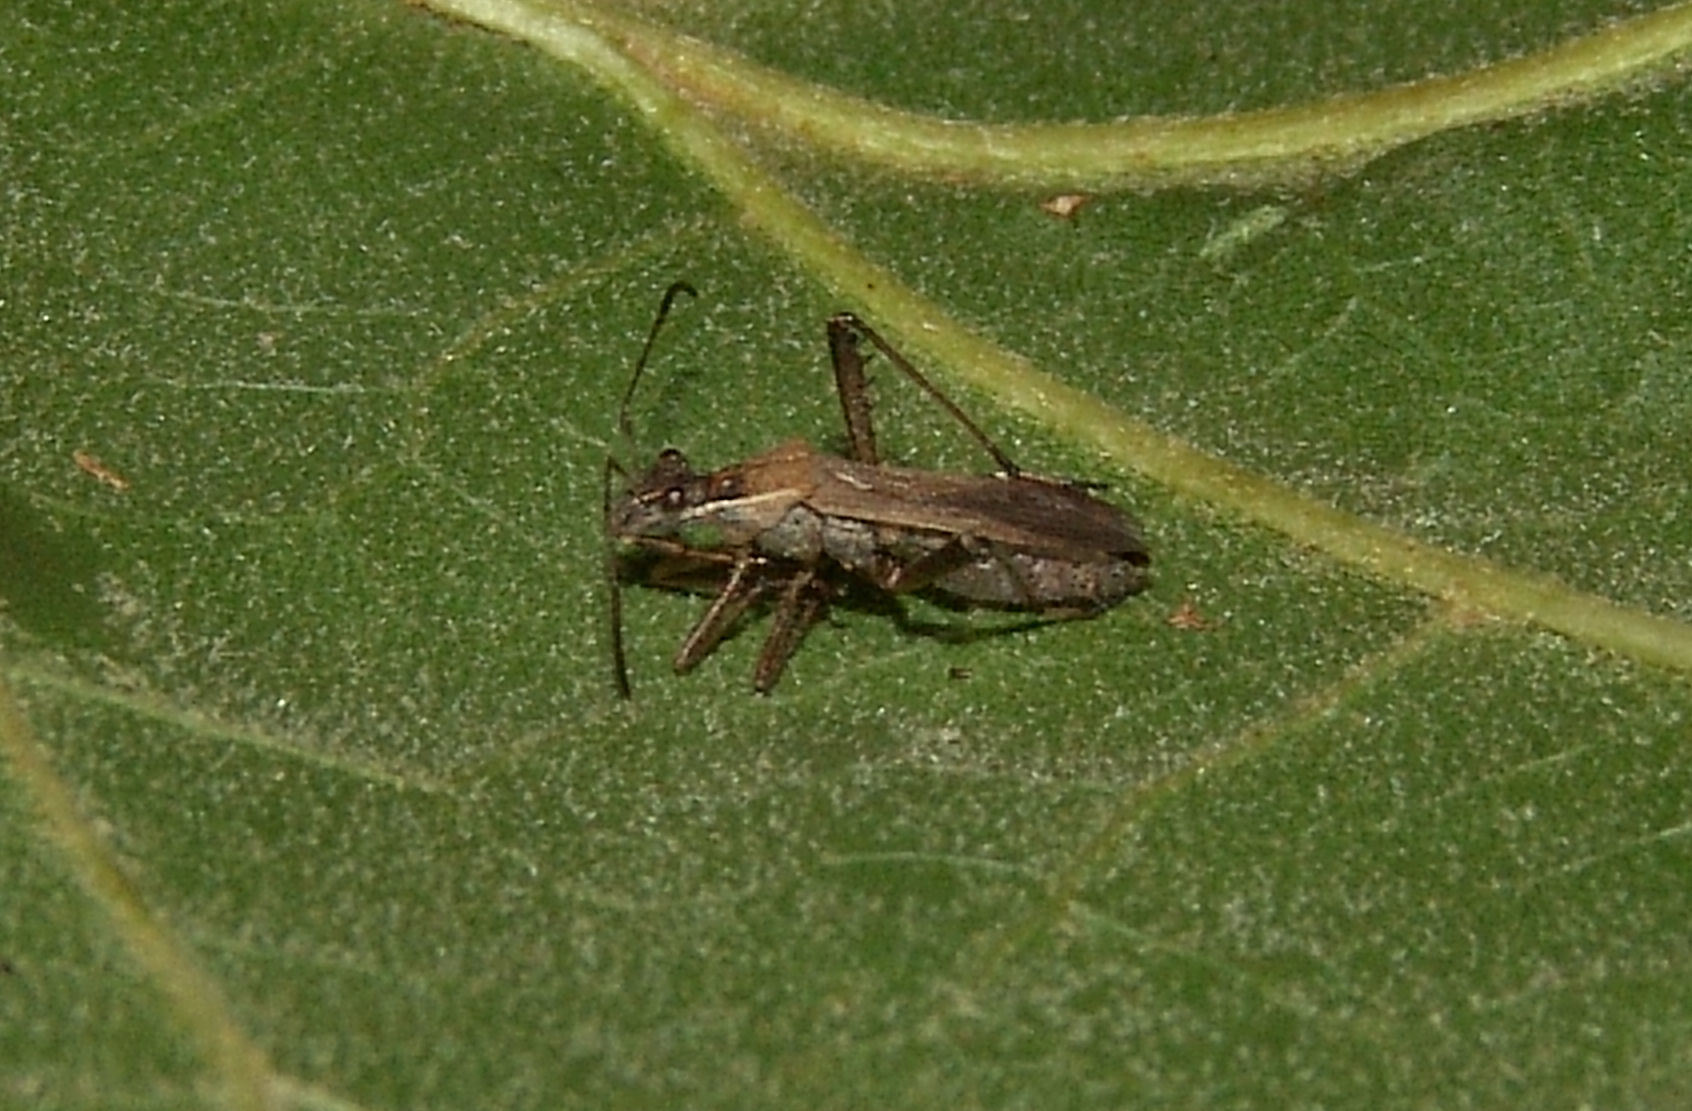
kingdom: Animalia
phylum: Arthropoda
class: Insecta
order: Hemiptera
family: Alydidae
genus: Alydus
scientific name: Alydus pilosulus
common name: Broad-headed bug
